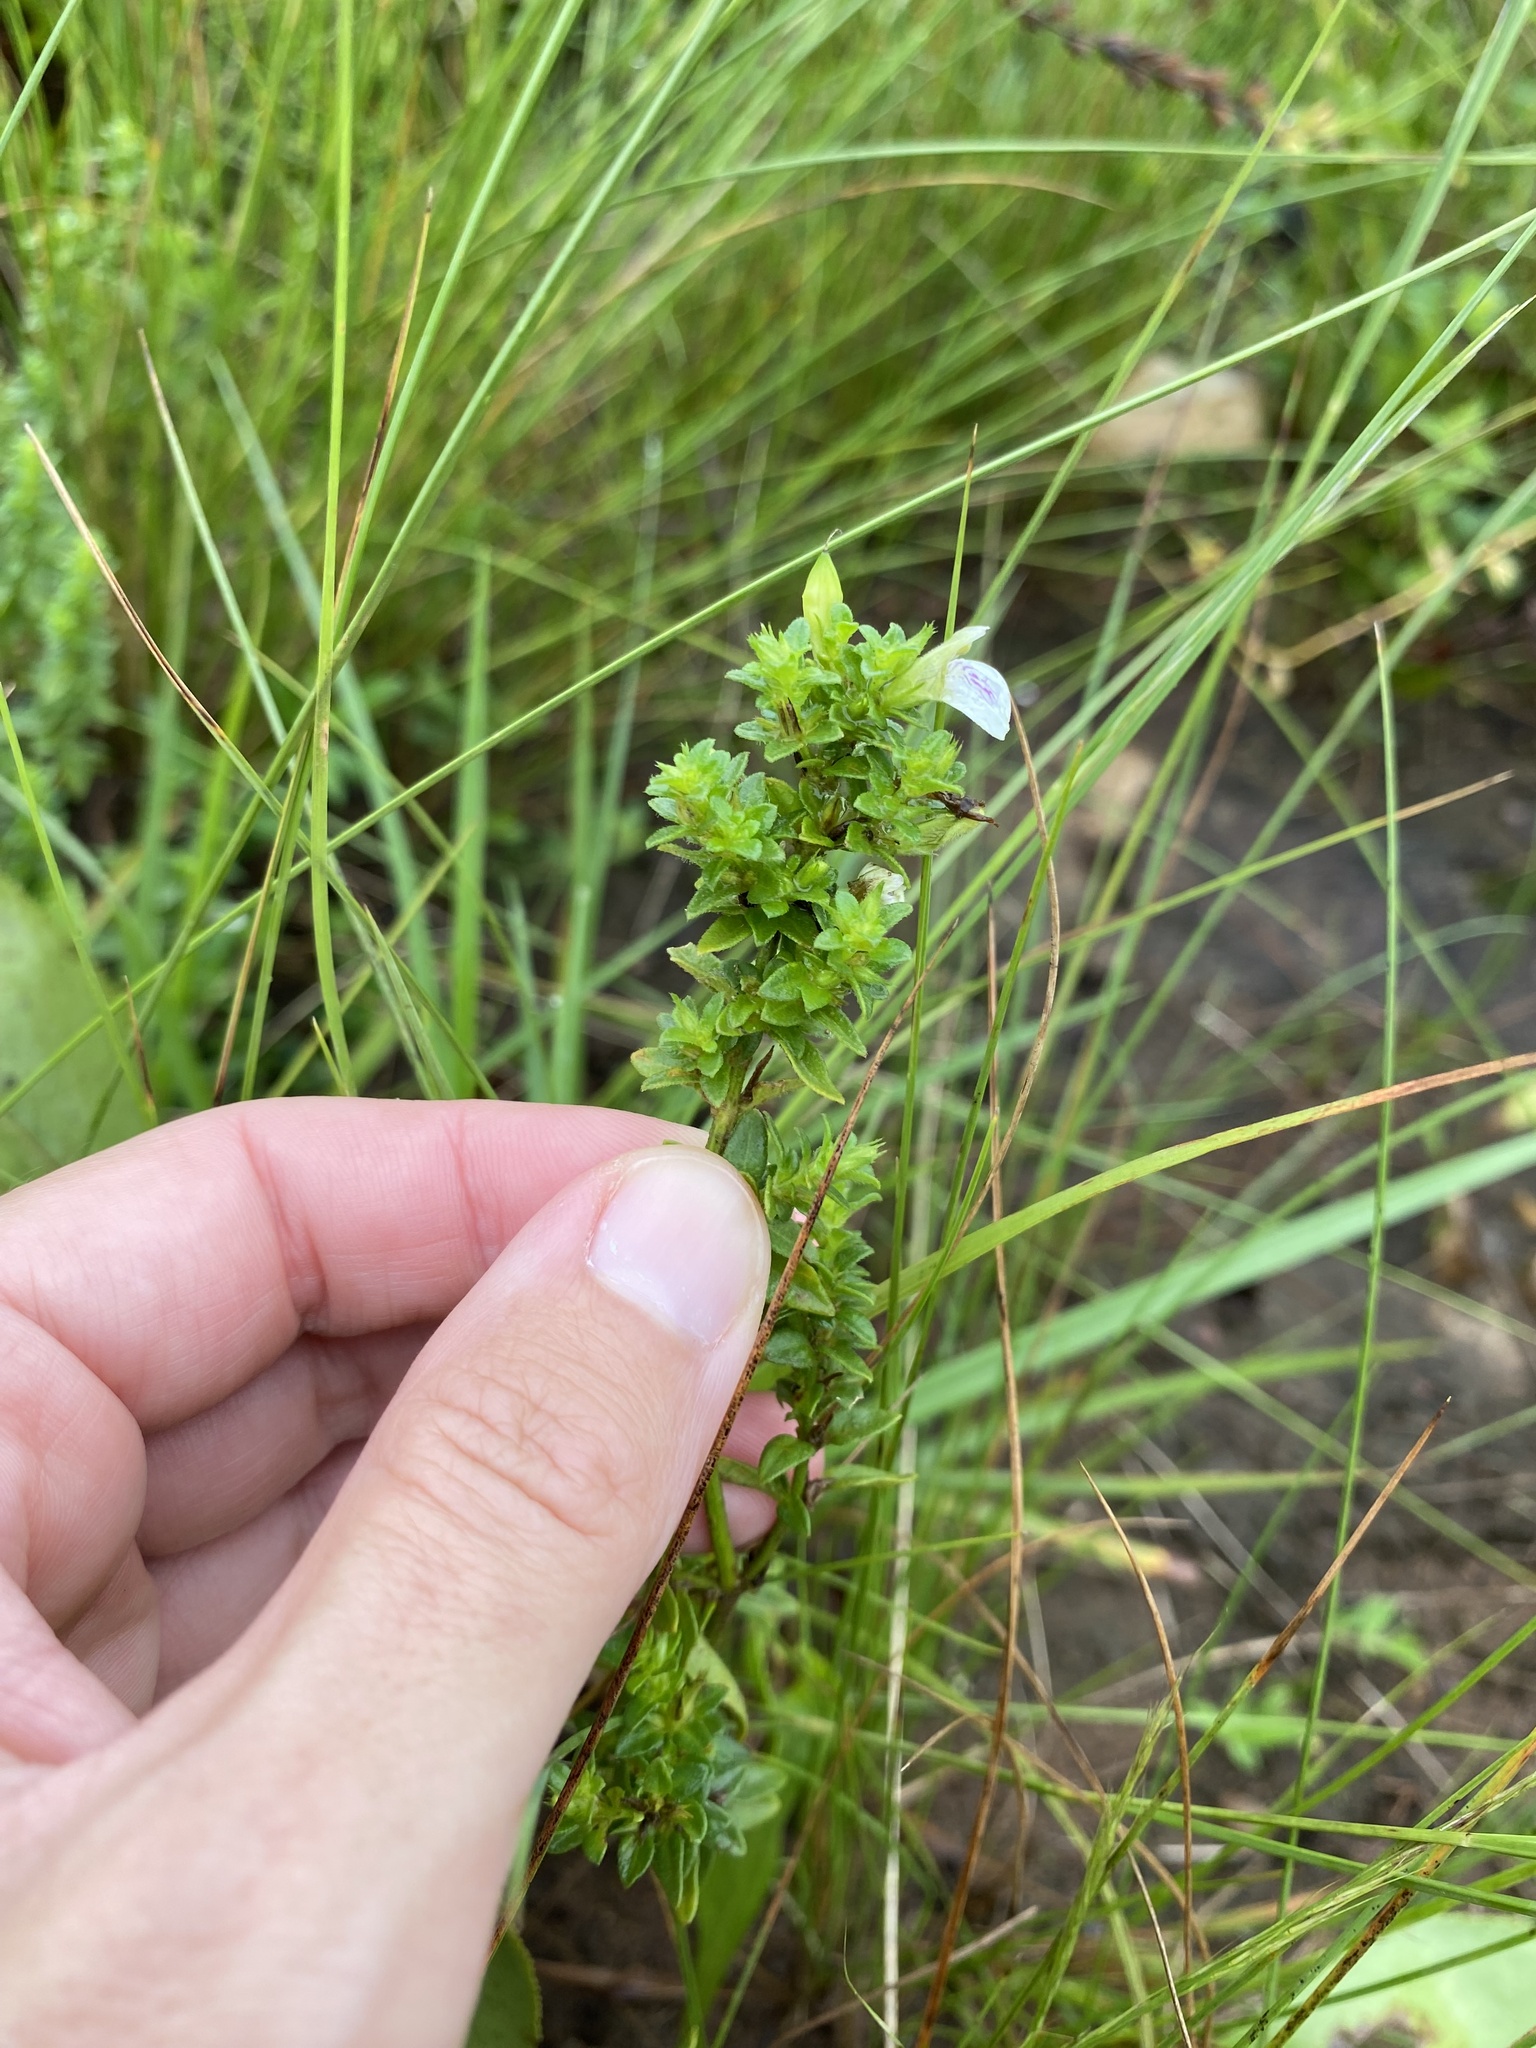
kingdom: Plantae
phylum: Tracheophyta
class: Magnoliopsida
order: Lamiales
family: Acanthaceae
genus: Justicia
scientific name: Justicia protracta
